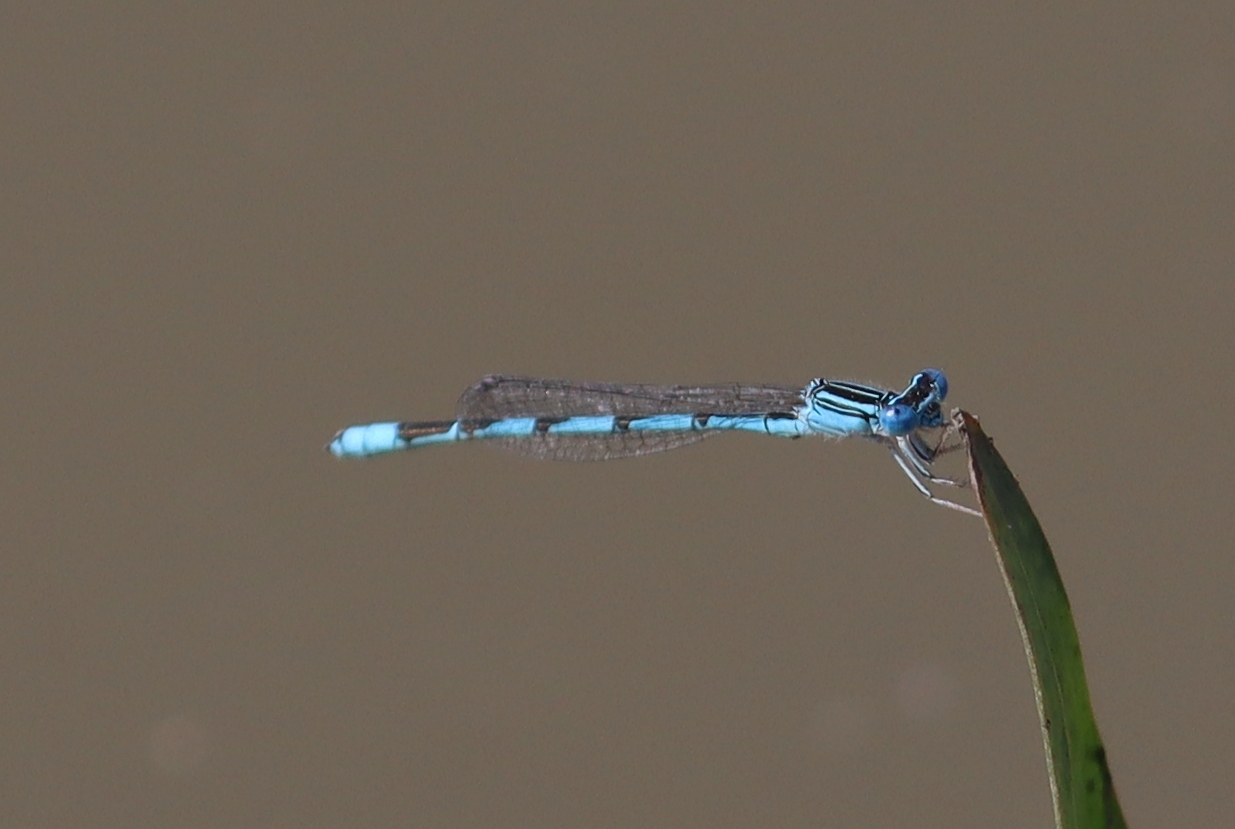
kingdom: Animalia
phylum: Arthropoda
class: Insecta
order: Odonata
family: Coenagrionidae
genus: Enallagma
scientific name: Enallagma basidens
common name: Double-striped bluet
